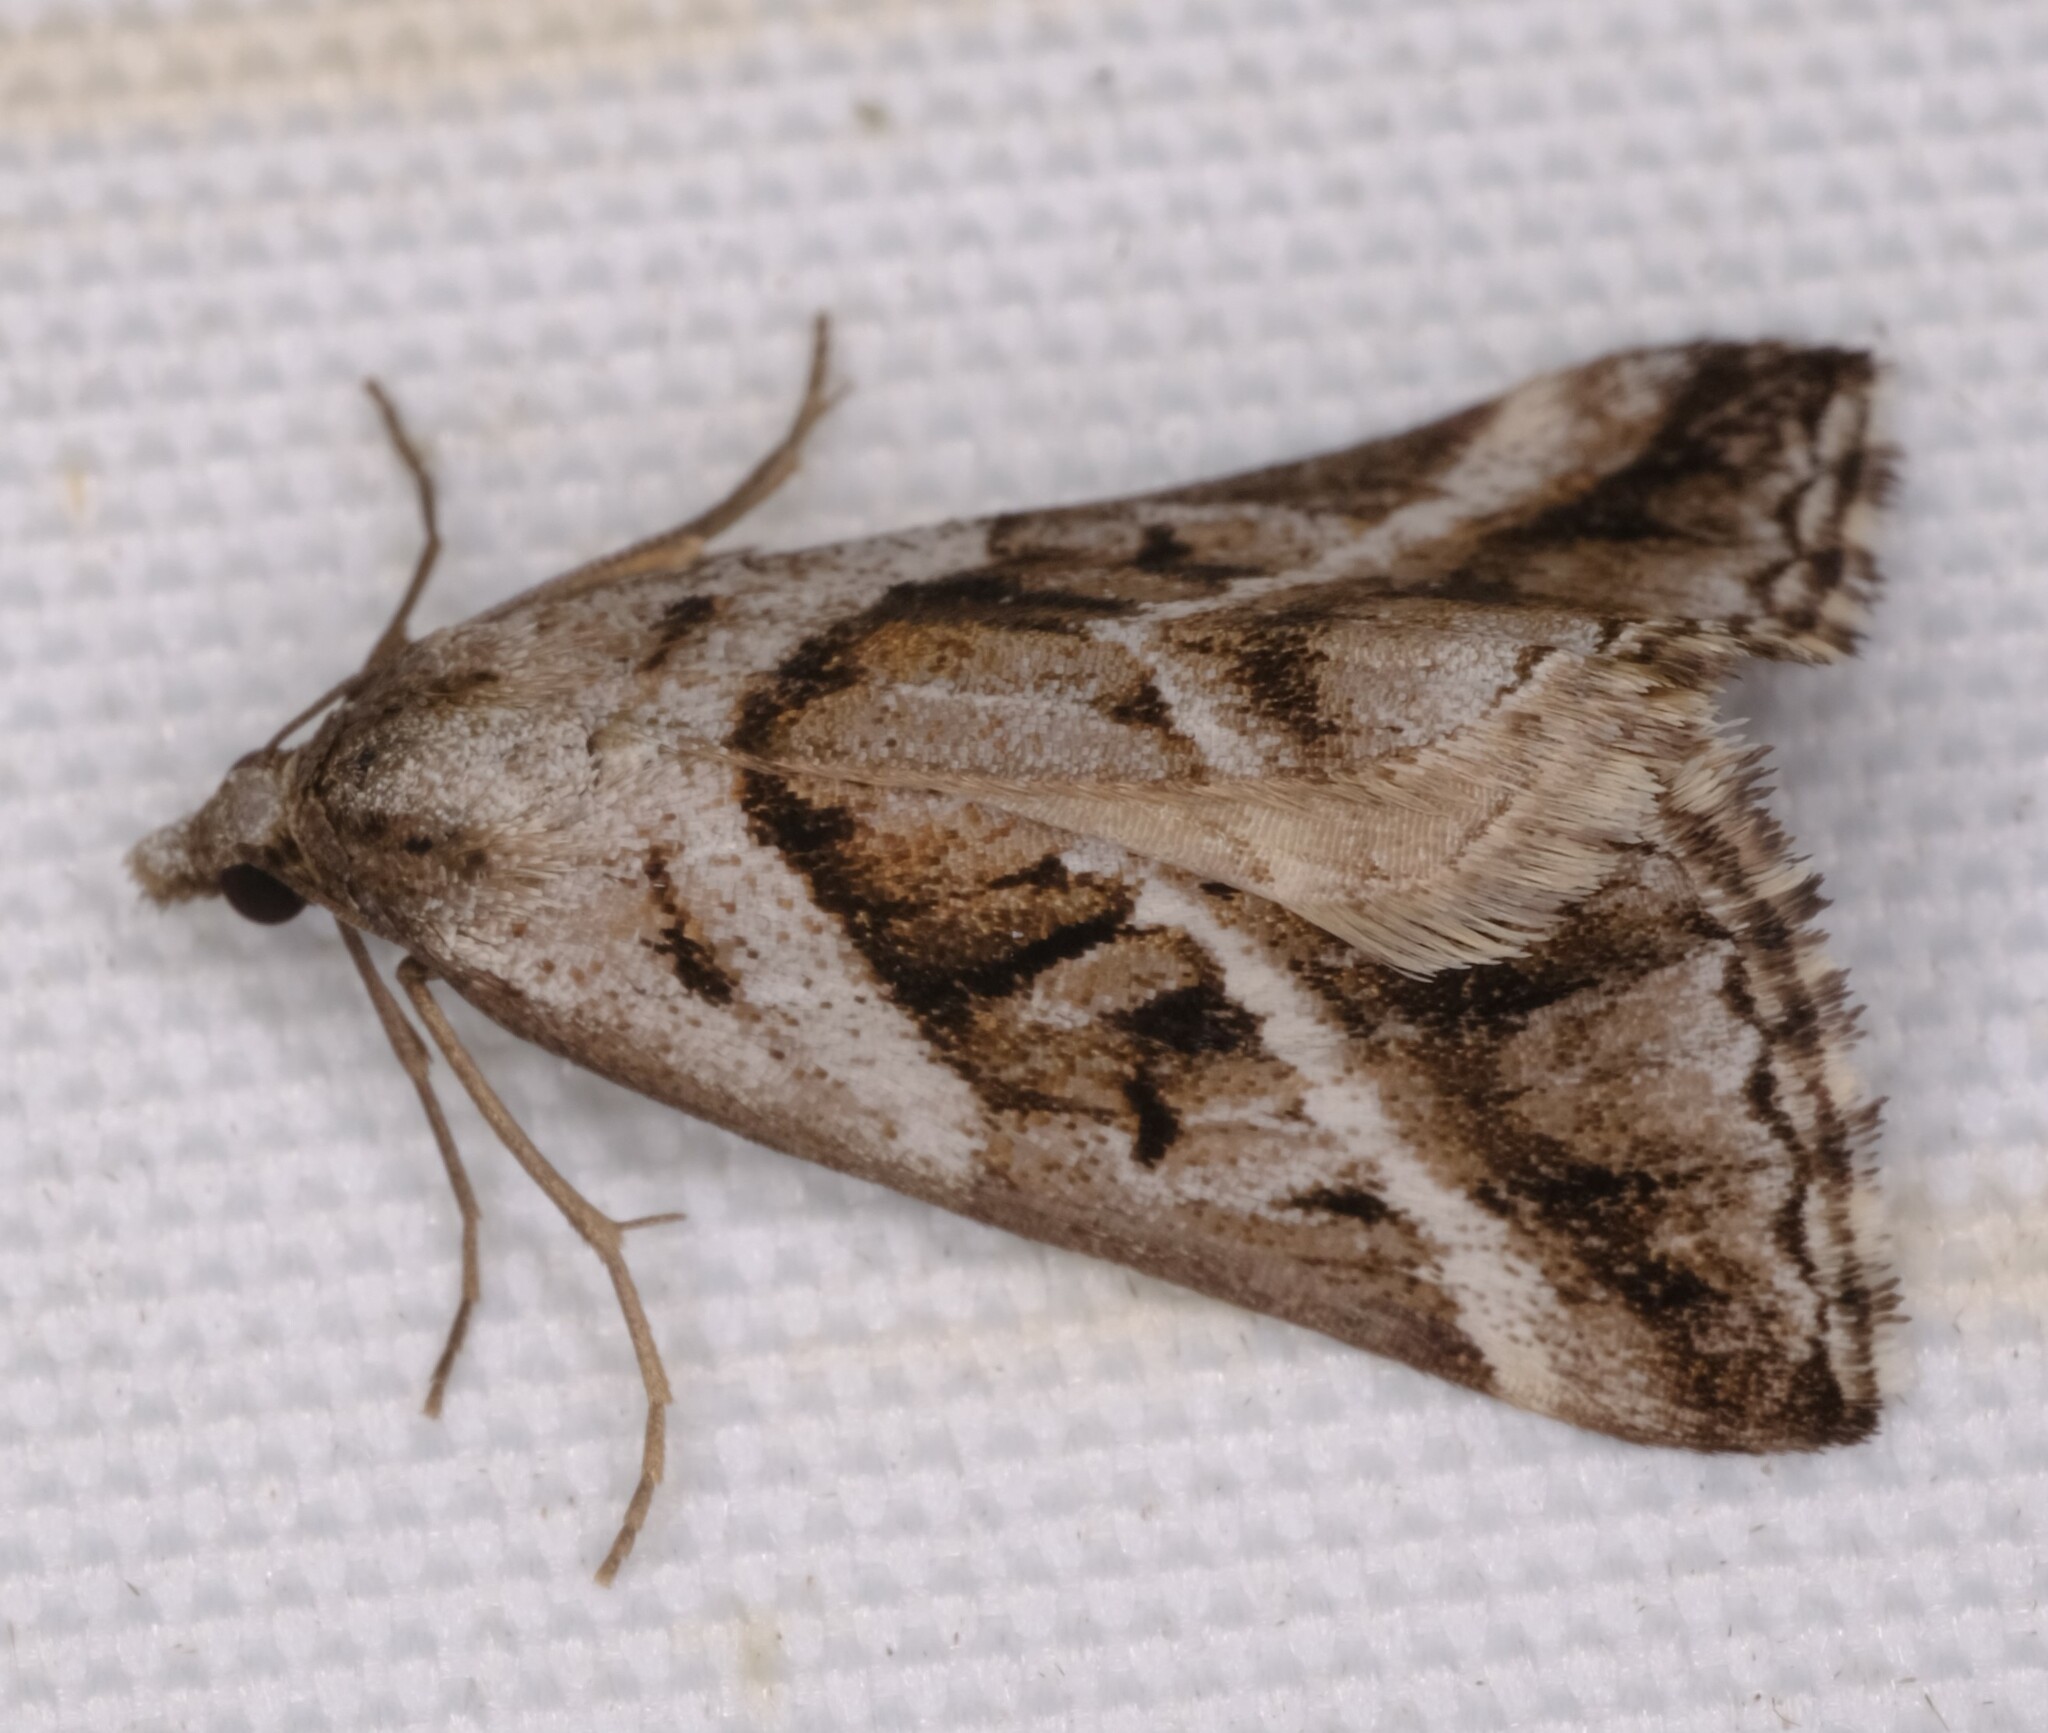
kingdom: Animalia
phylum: Arthropoda
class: Insecta
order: Lepidoptera
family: Geometridae
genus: Dichromodes
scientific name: Dichromodes stilbiata
